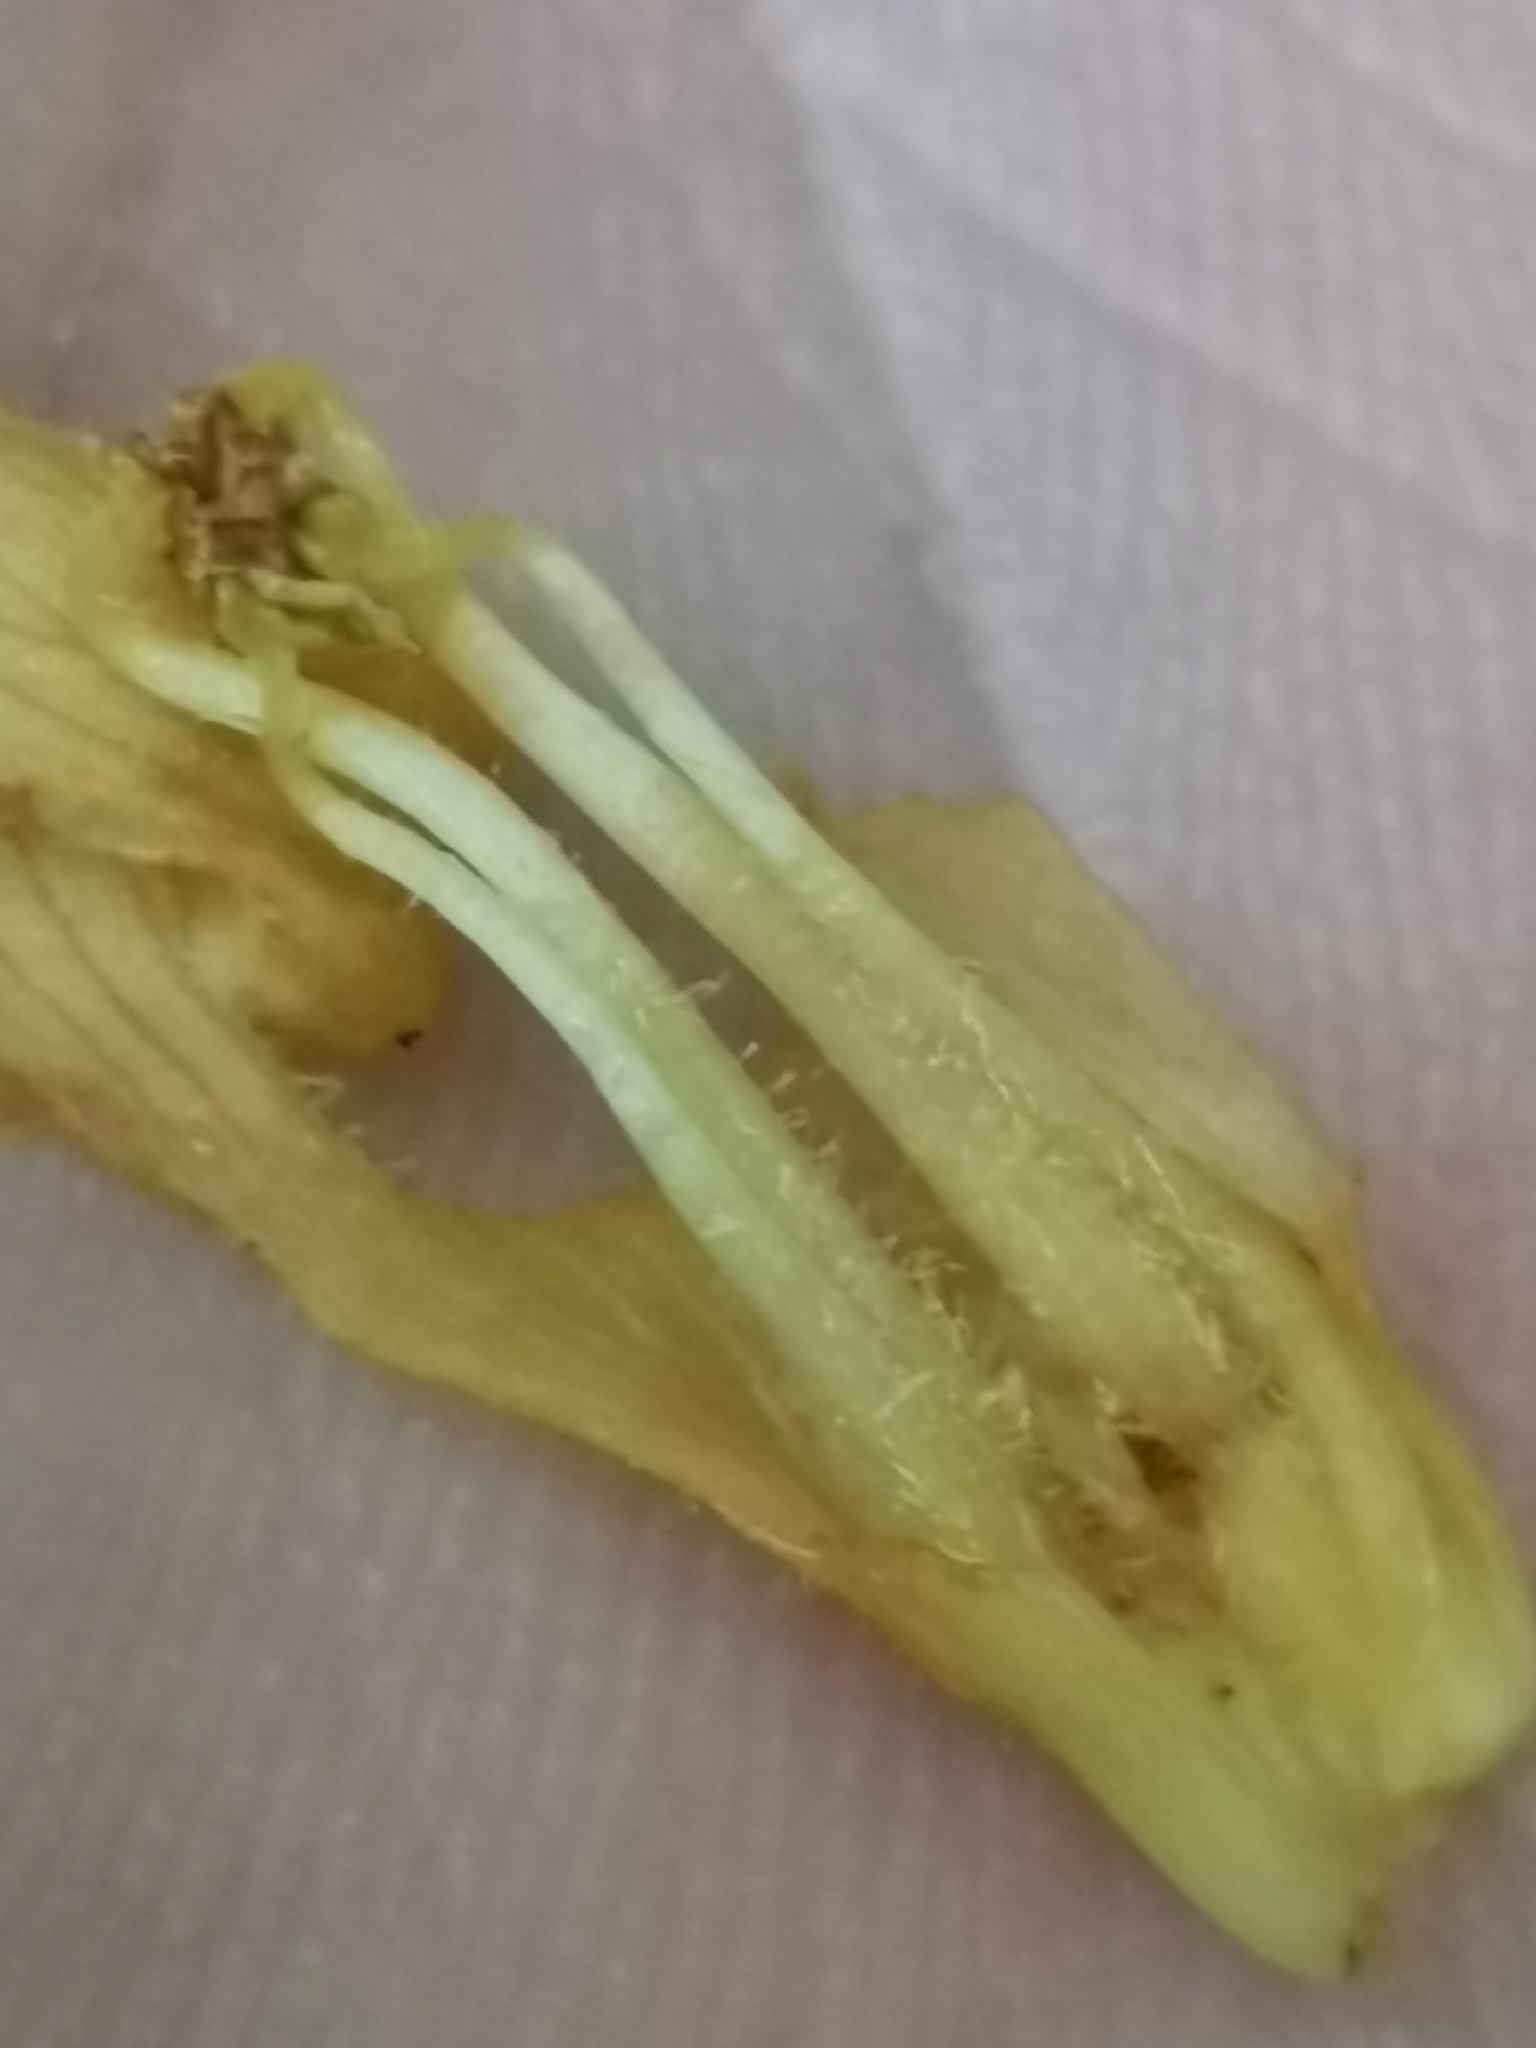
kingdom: Plantae
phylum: Tracheophyta
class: Magnoliopsida
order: Lamiales
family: Orobanchaceae
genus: Orobanche
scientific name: Orobanche flava
